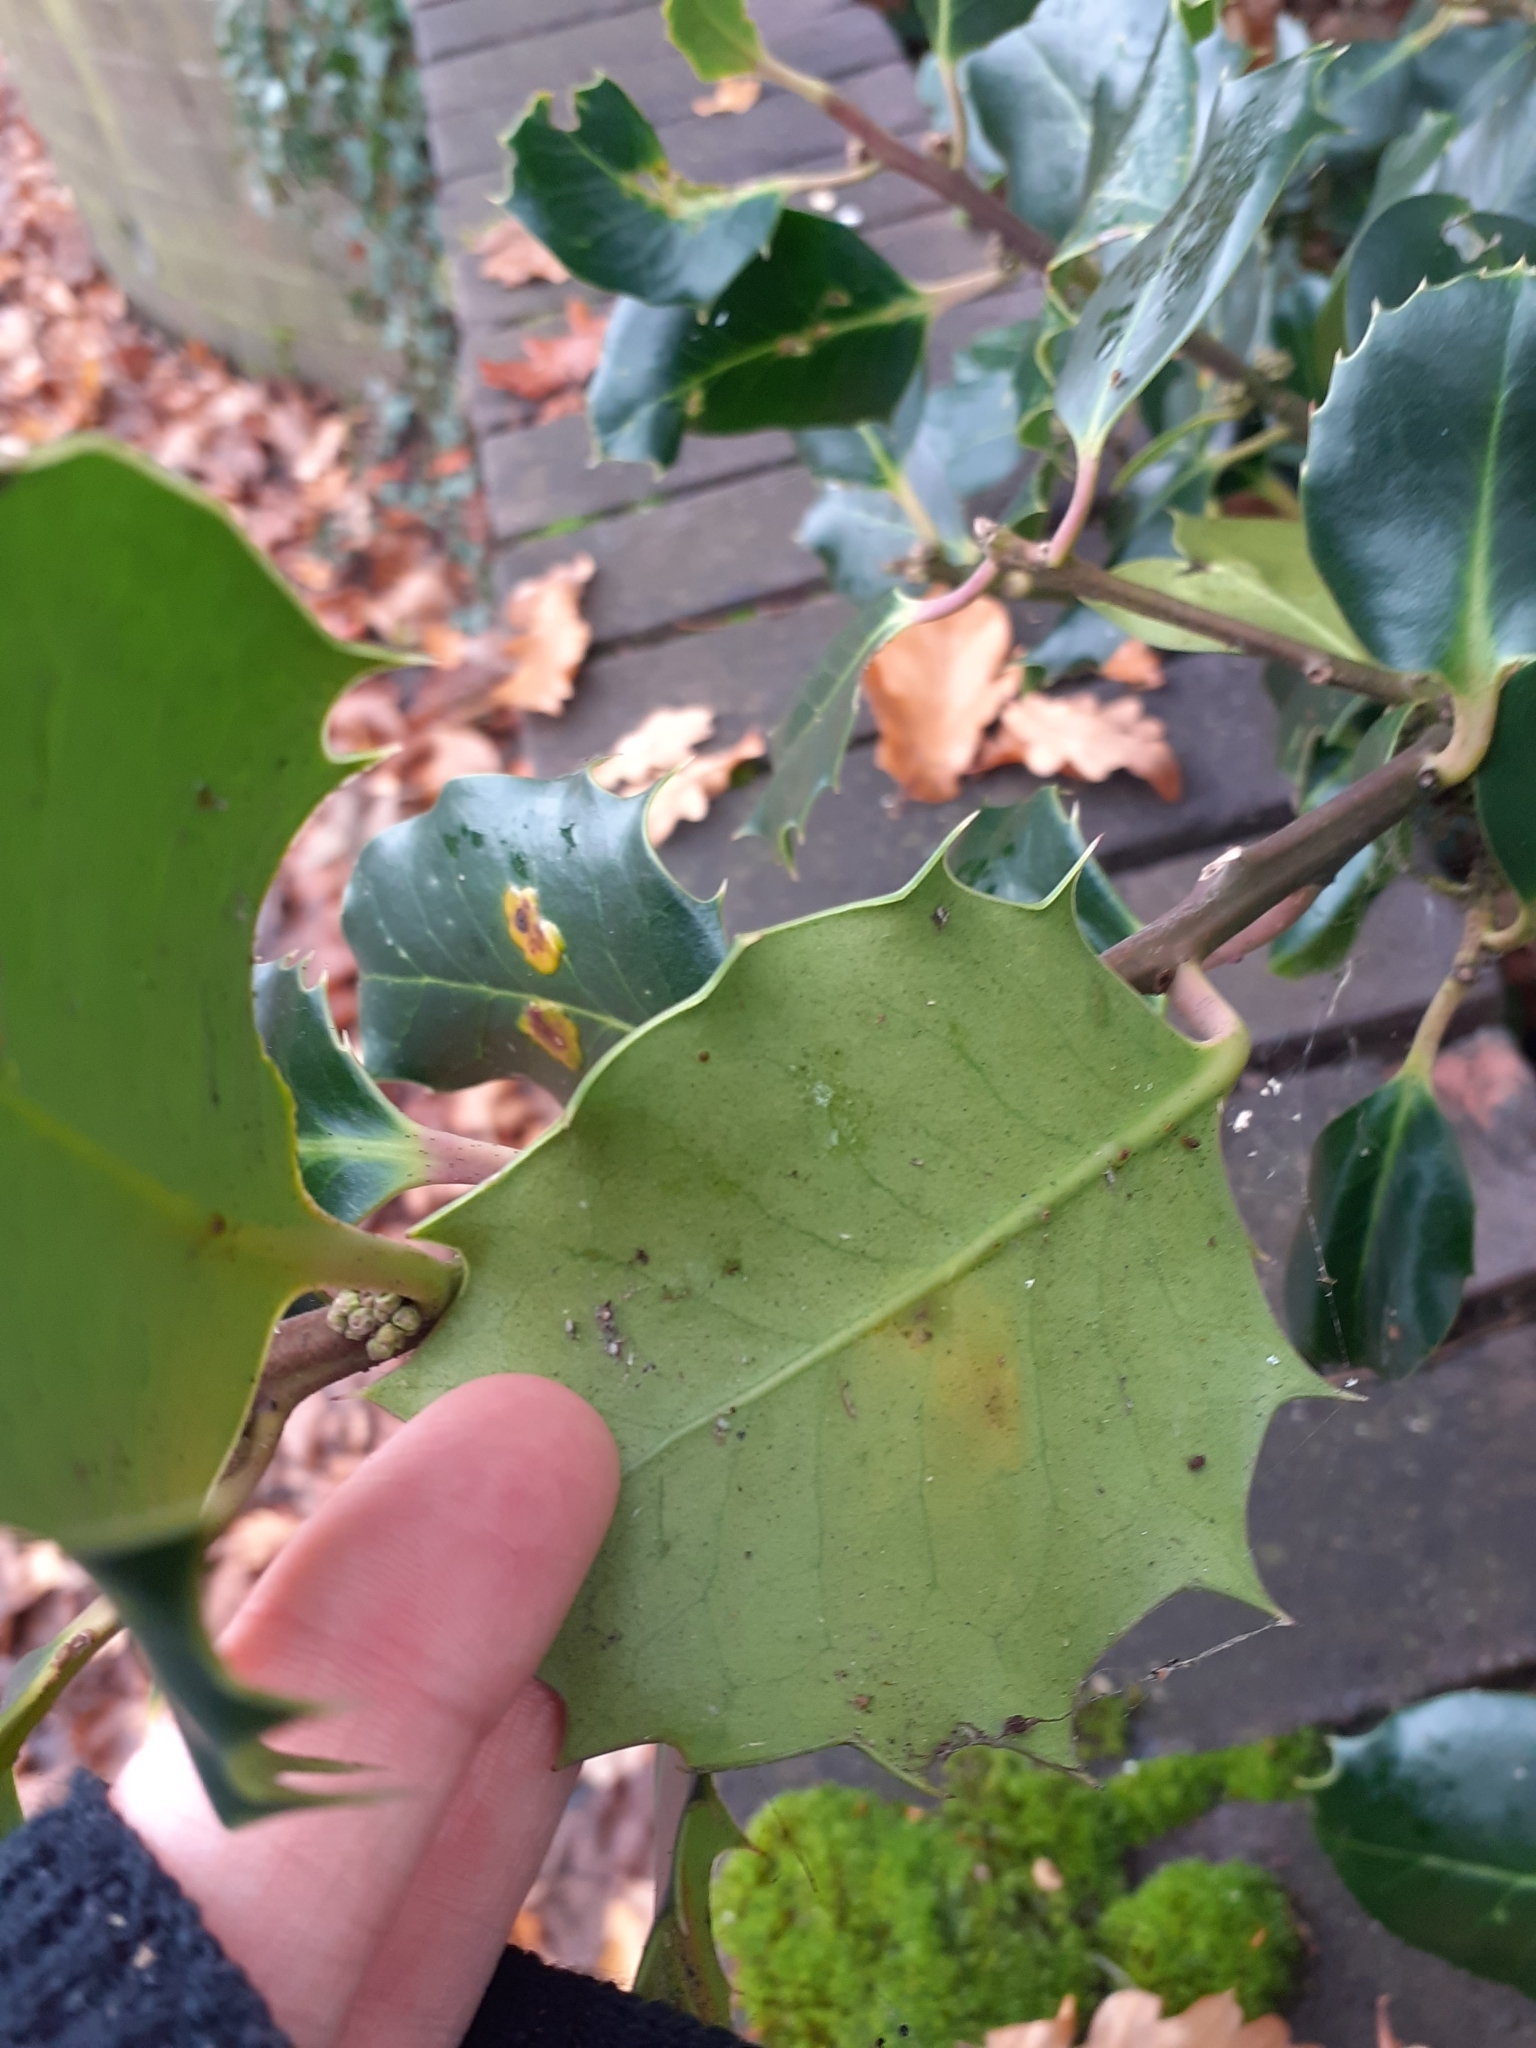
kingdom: Animalia
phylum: Arthropoda
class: Insecta
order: Diptera
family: Agromyzidae
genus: Phytomyza
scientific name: Phytomyza ilicis
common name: Holly leafminer
